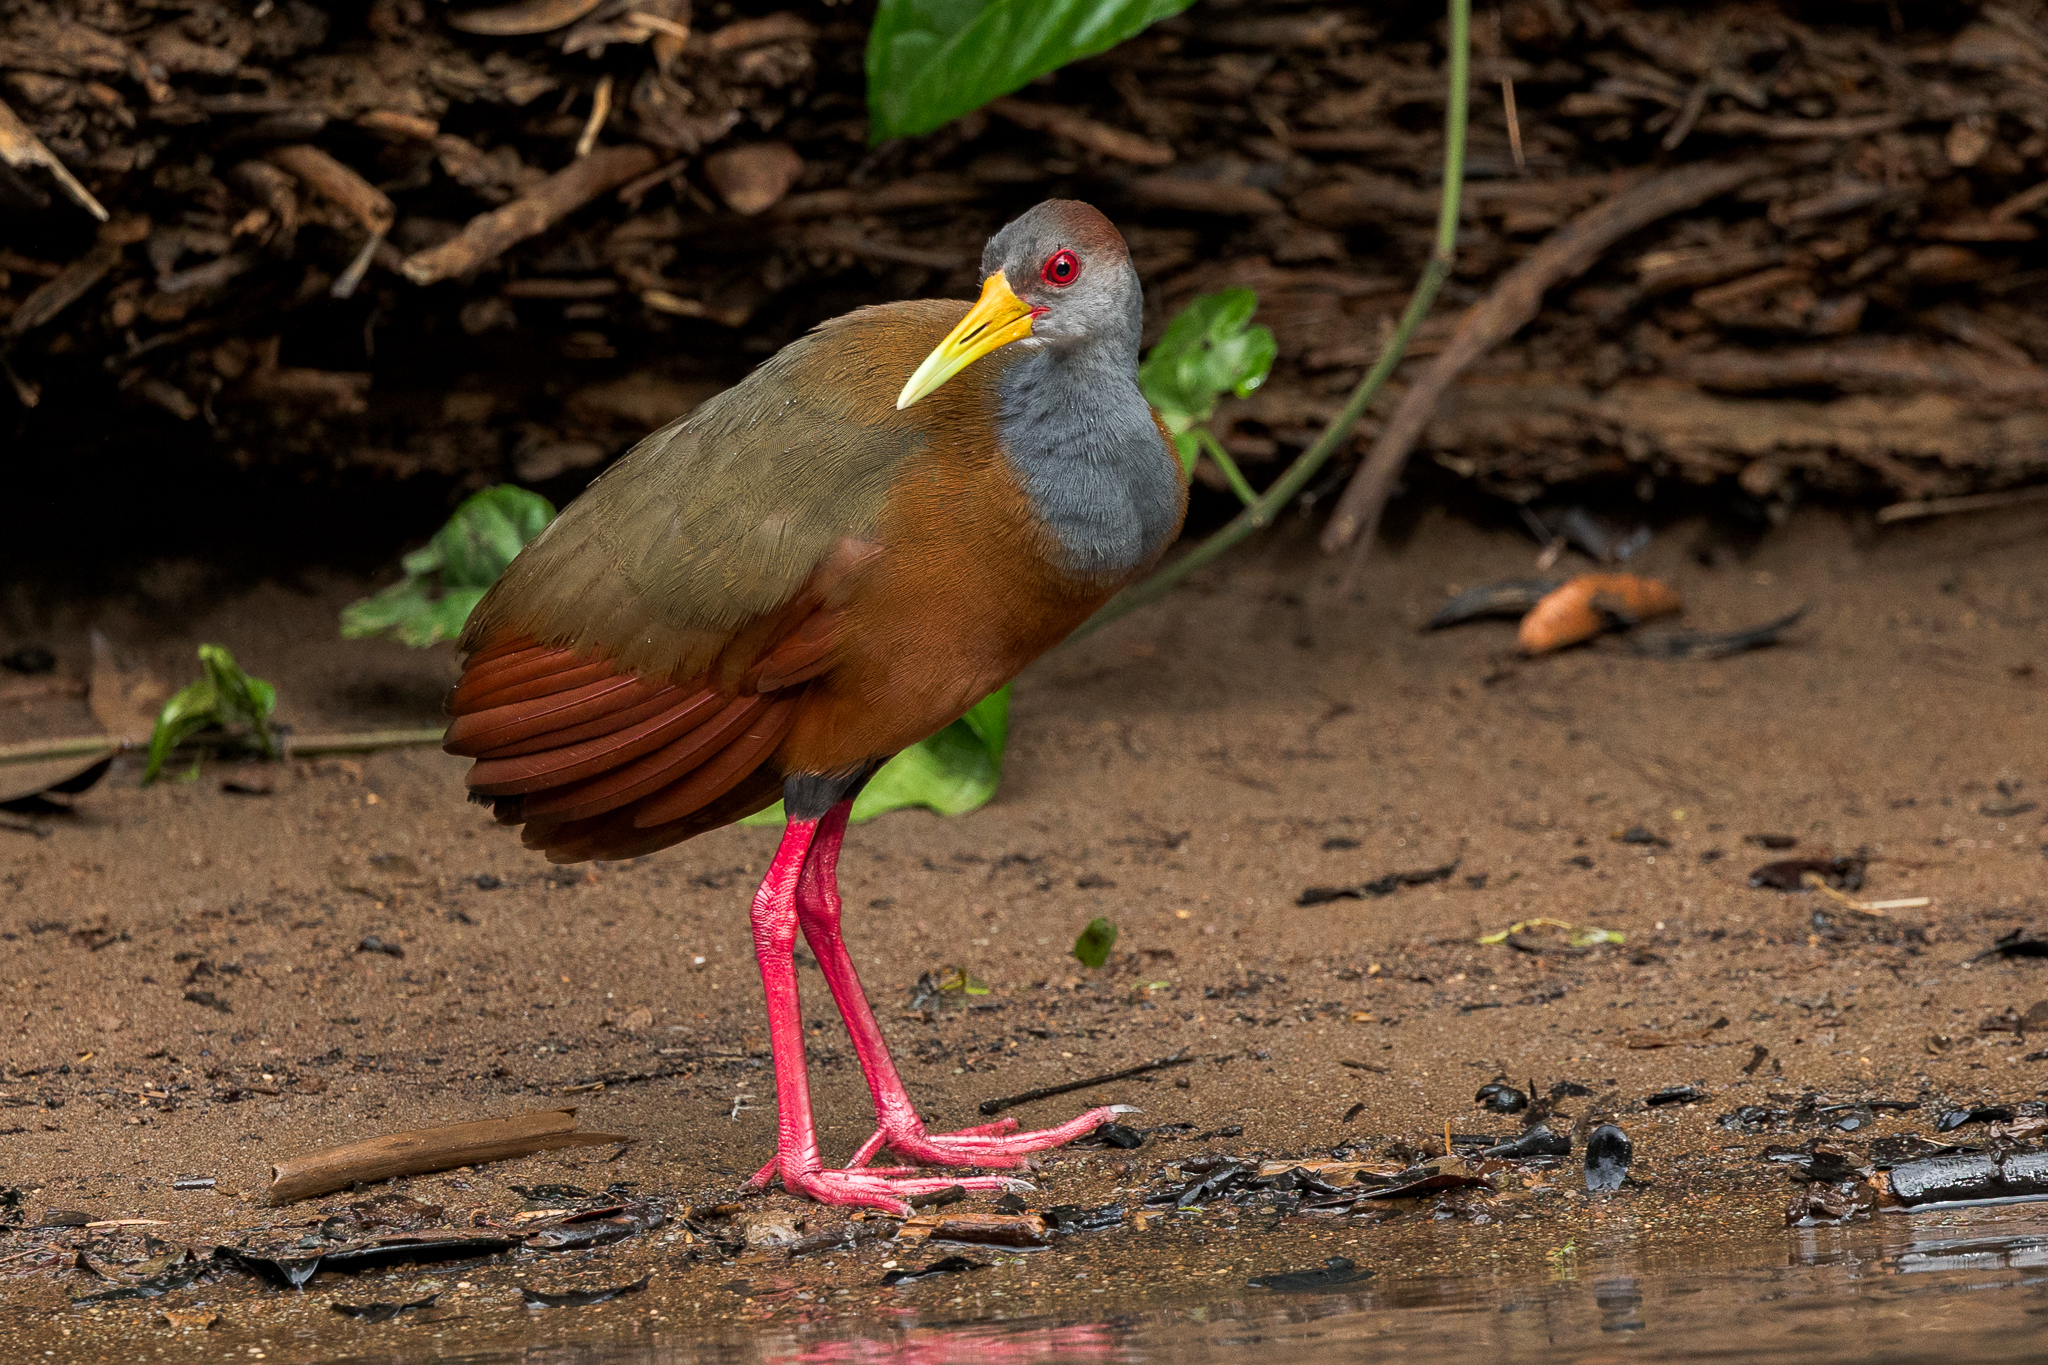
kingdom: Animalia
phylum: Chordata
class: Aves
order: Gruiformes
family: Rallidae
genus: Aramides
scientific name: Aramides albiventris
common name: Russet-naped wood-rail
